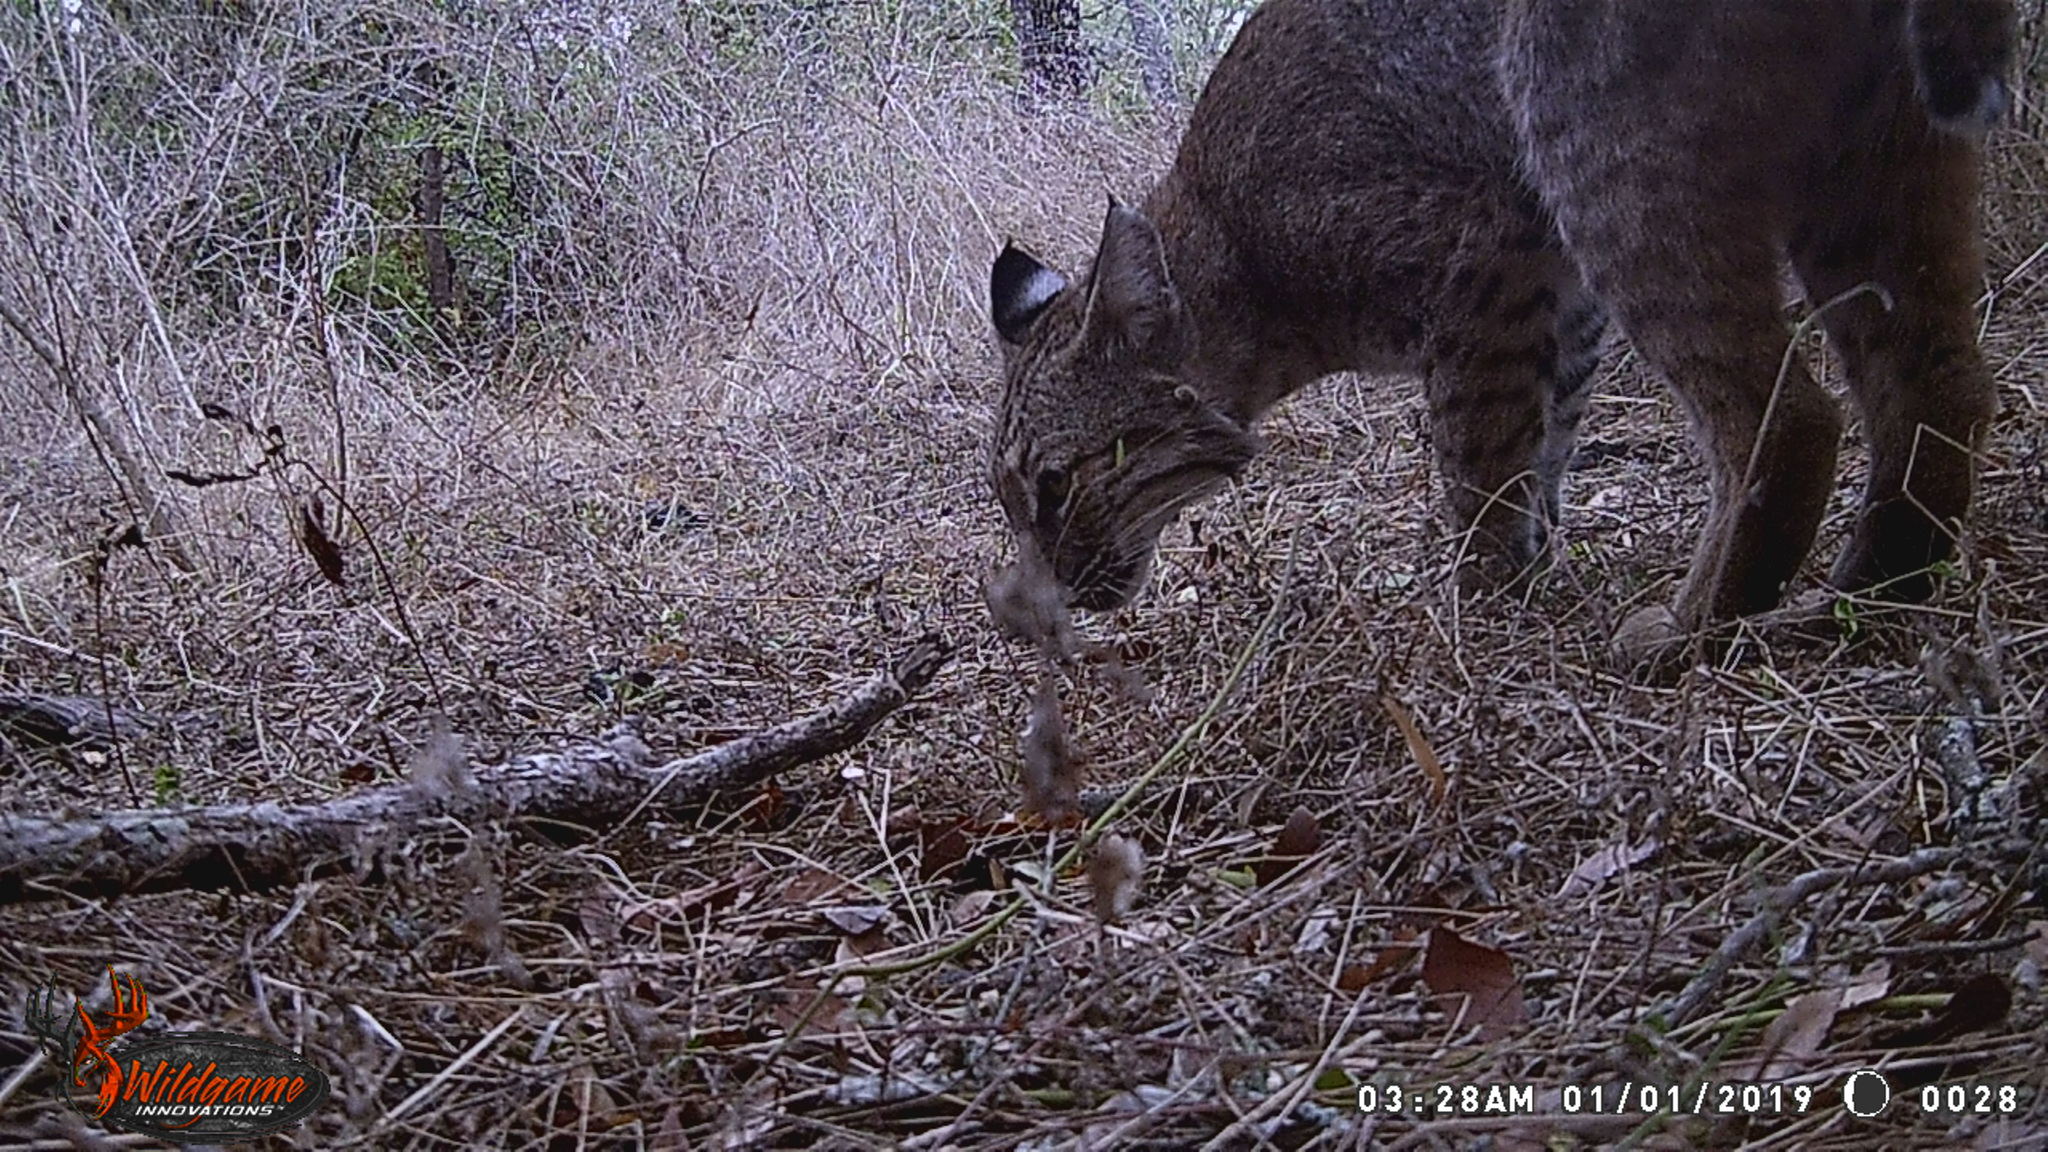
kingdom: Animalia
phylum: Chordata
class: Mammalia
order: Carnivora
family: Felidae
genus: Lynx
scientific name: Lynx rufus
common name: Bobcat
